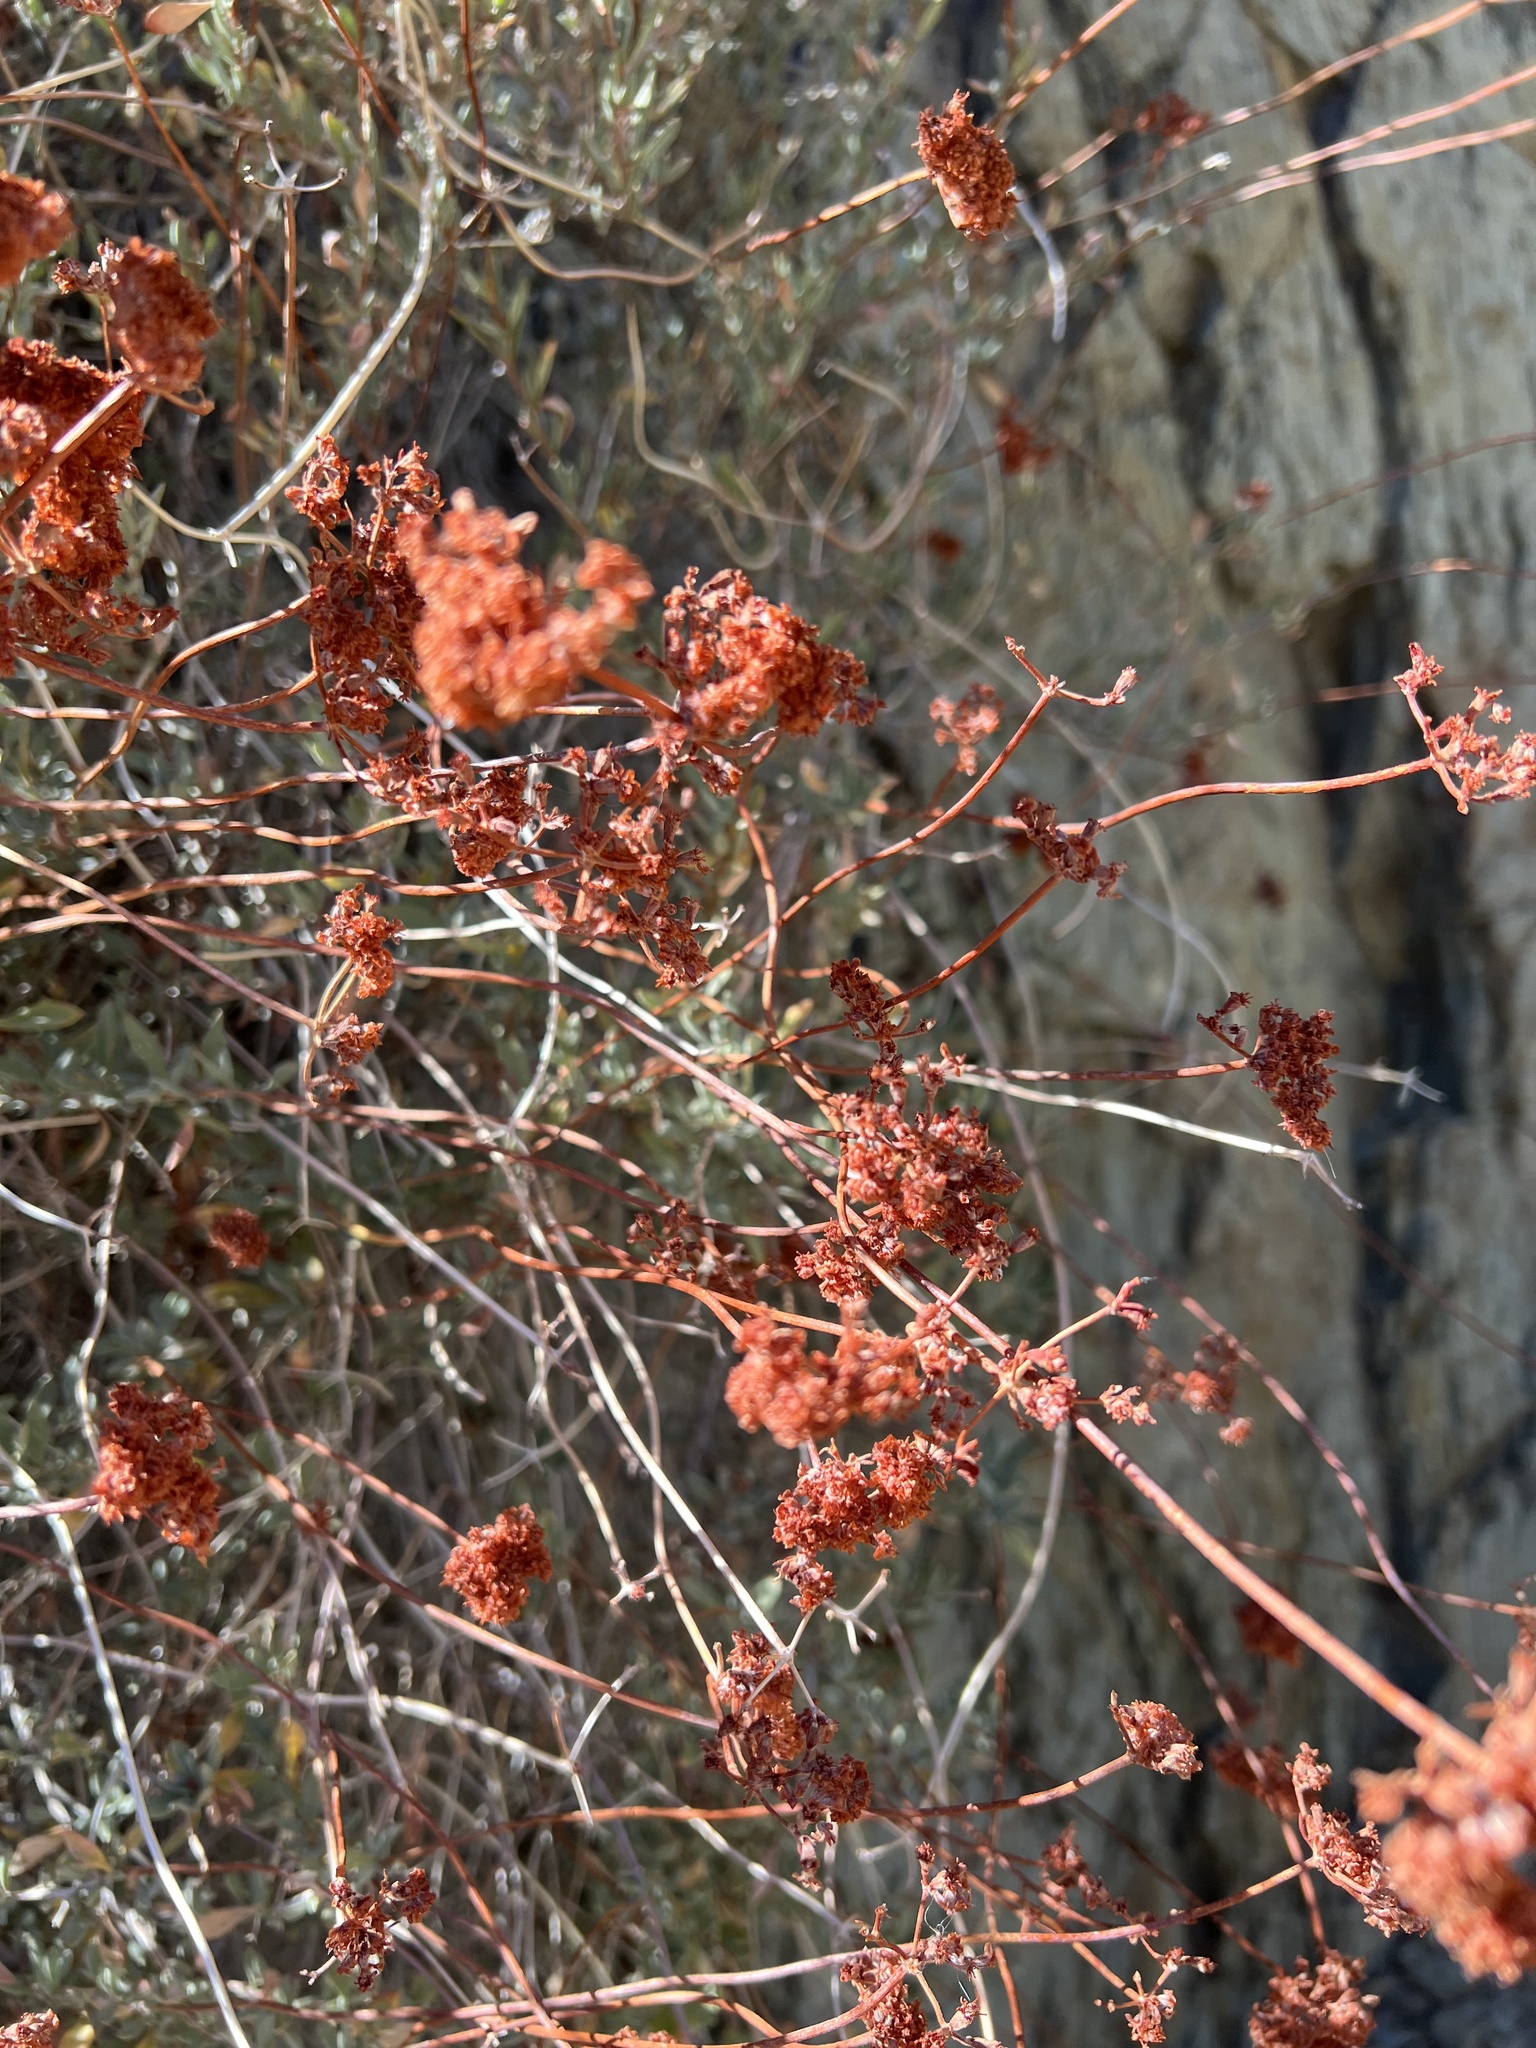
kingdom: Plantae
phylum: Tracheophyta
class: Magnoliopsida
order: Caryophyllales
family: Polygonaceae
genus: Eriogonum
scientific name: Eriogonum fasciculatum
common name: California wild buckwheat
